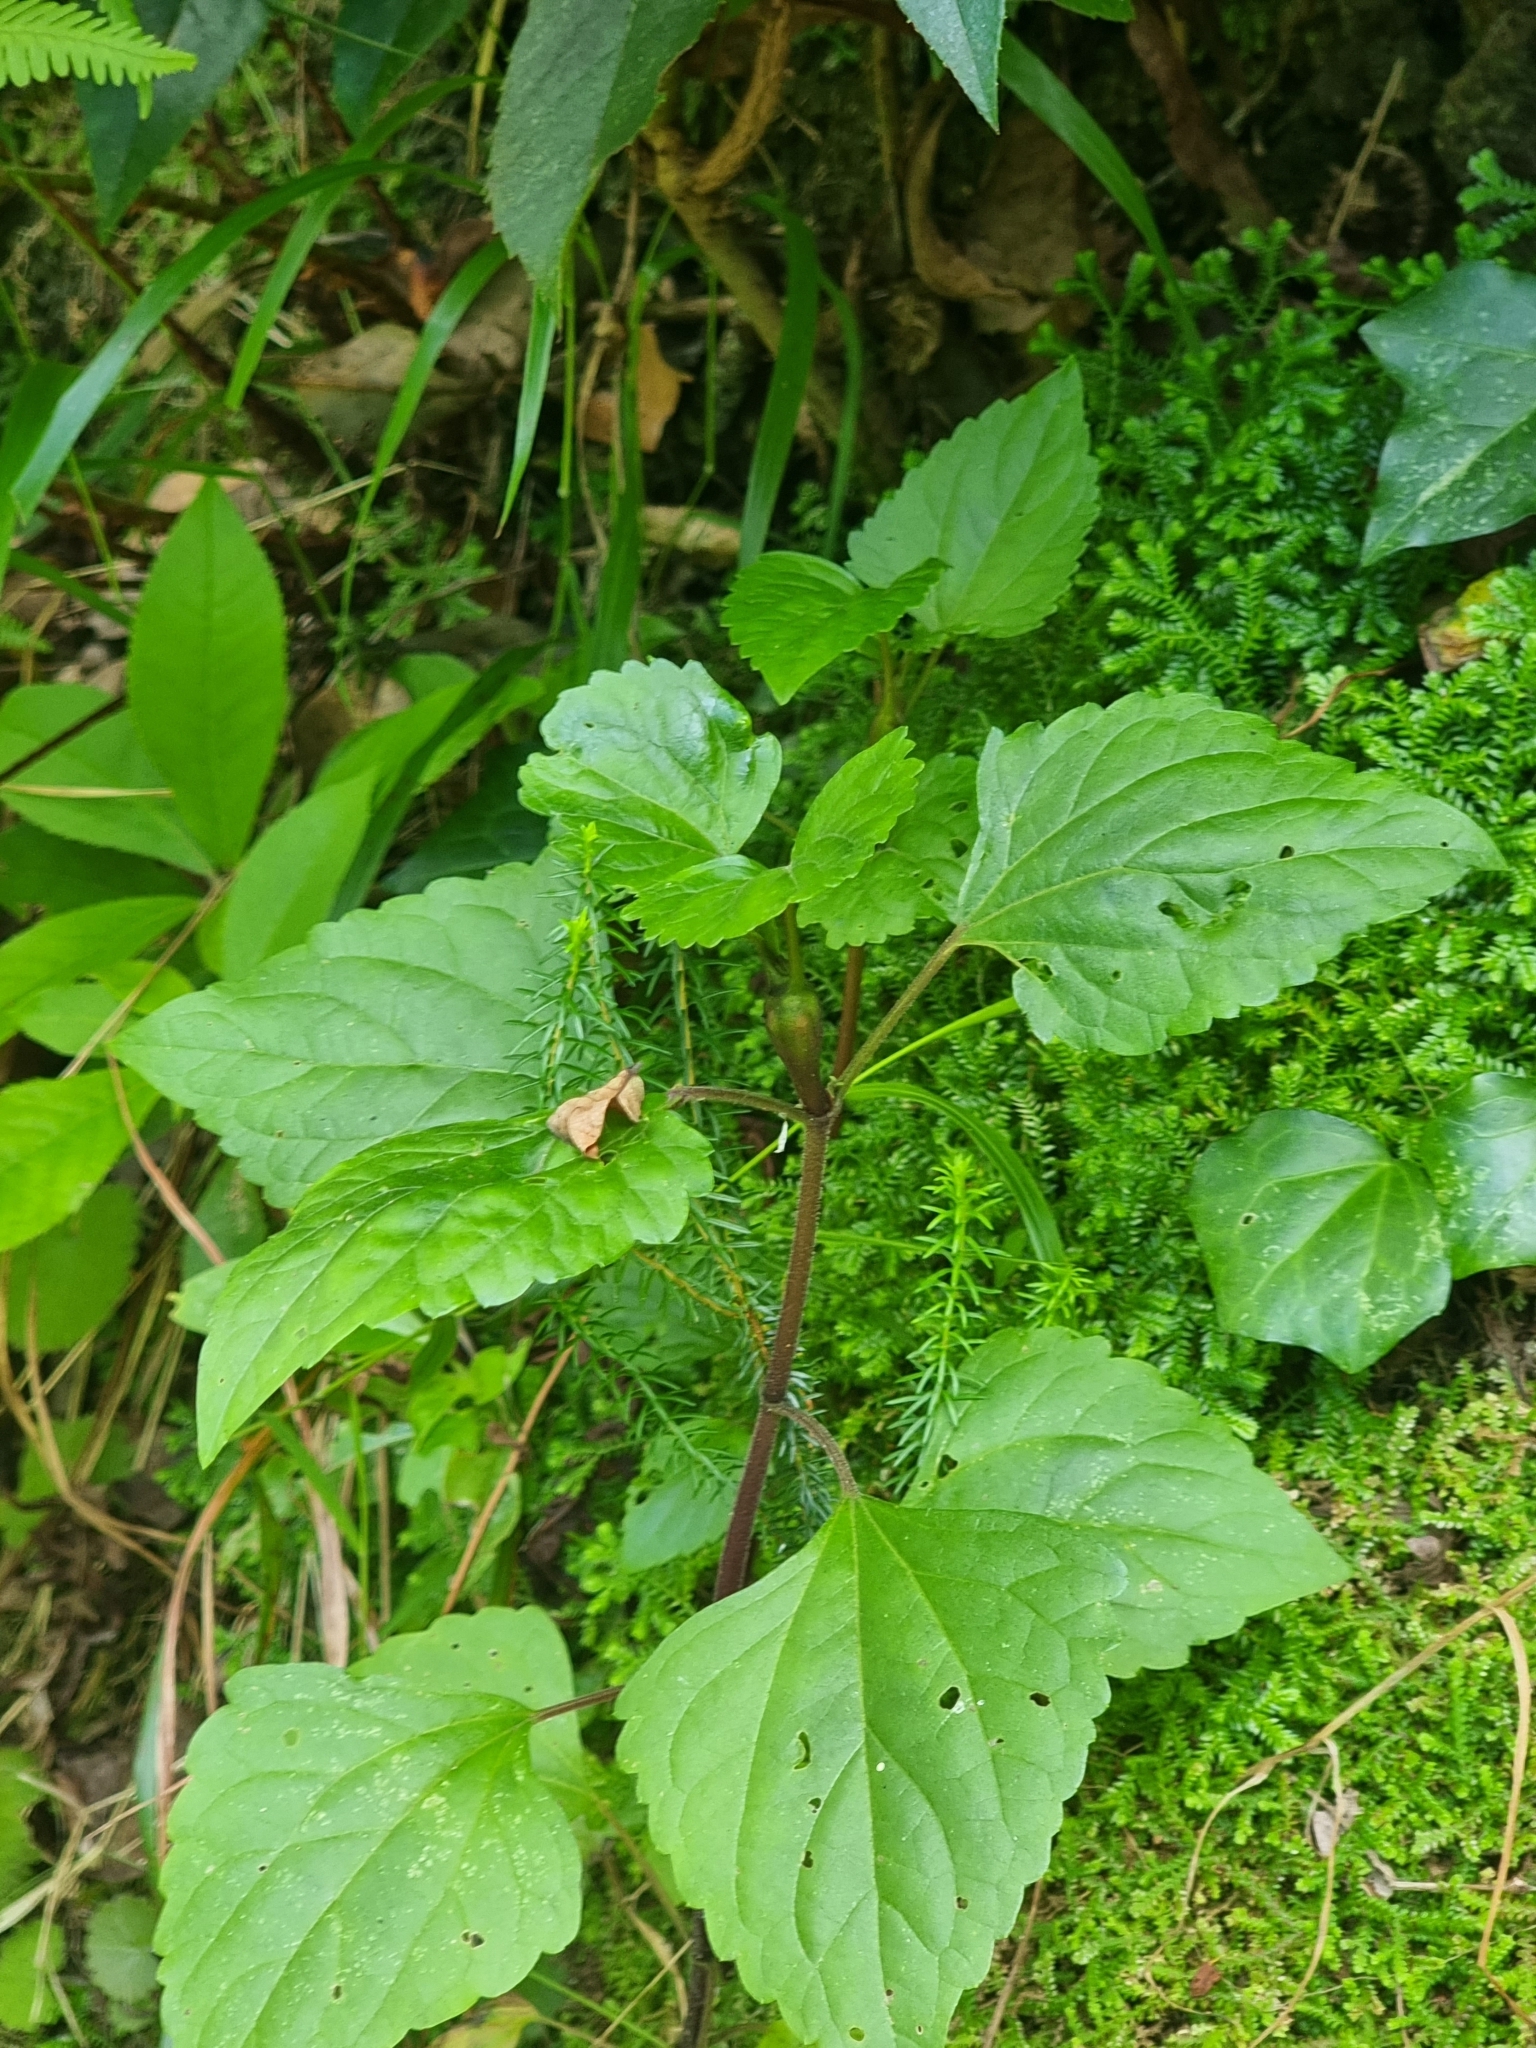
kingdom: Plantae
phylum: Tracheophyta
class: Magnoliopsida
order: Asterales
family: Asteraceae
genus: Ageratina
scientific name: Ageratina adenophora
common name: Sticky snakeroot
